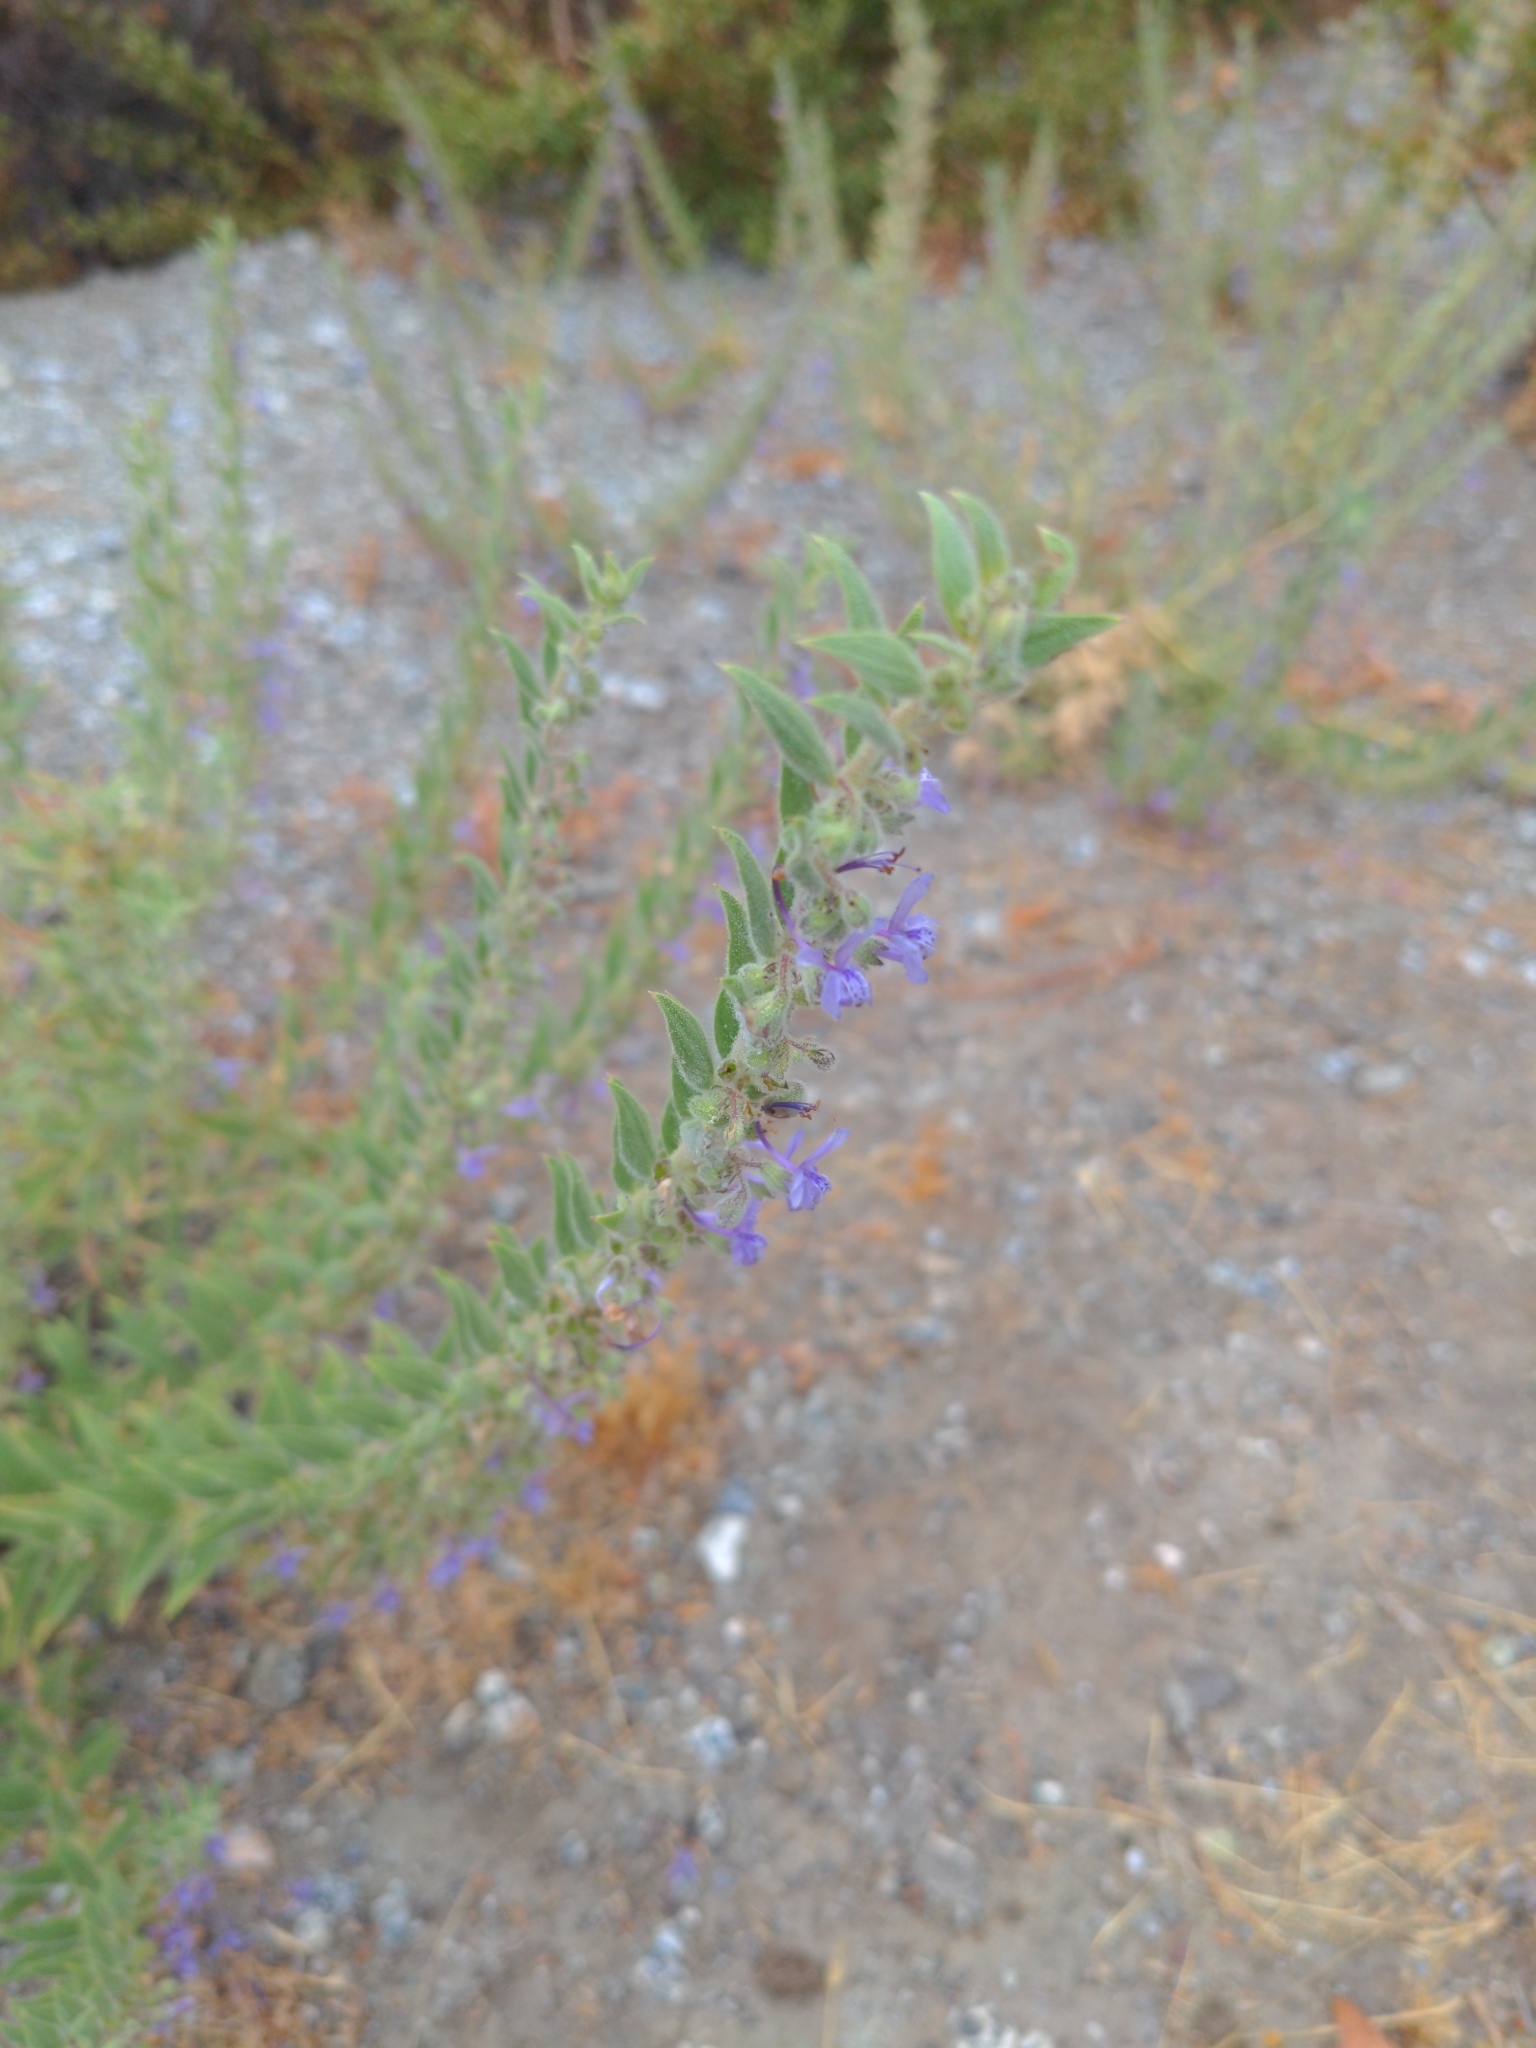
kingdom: Plantae
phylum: Tracheophyta
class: Magnoliopsida
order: Lamiales
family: Lamiaceae
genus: Trichostema
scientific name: Trichostema lanceolatum
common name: Vinegar-weed
